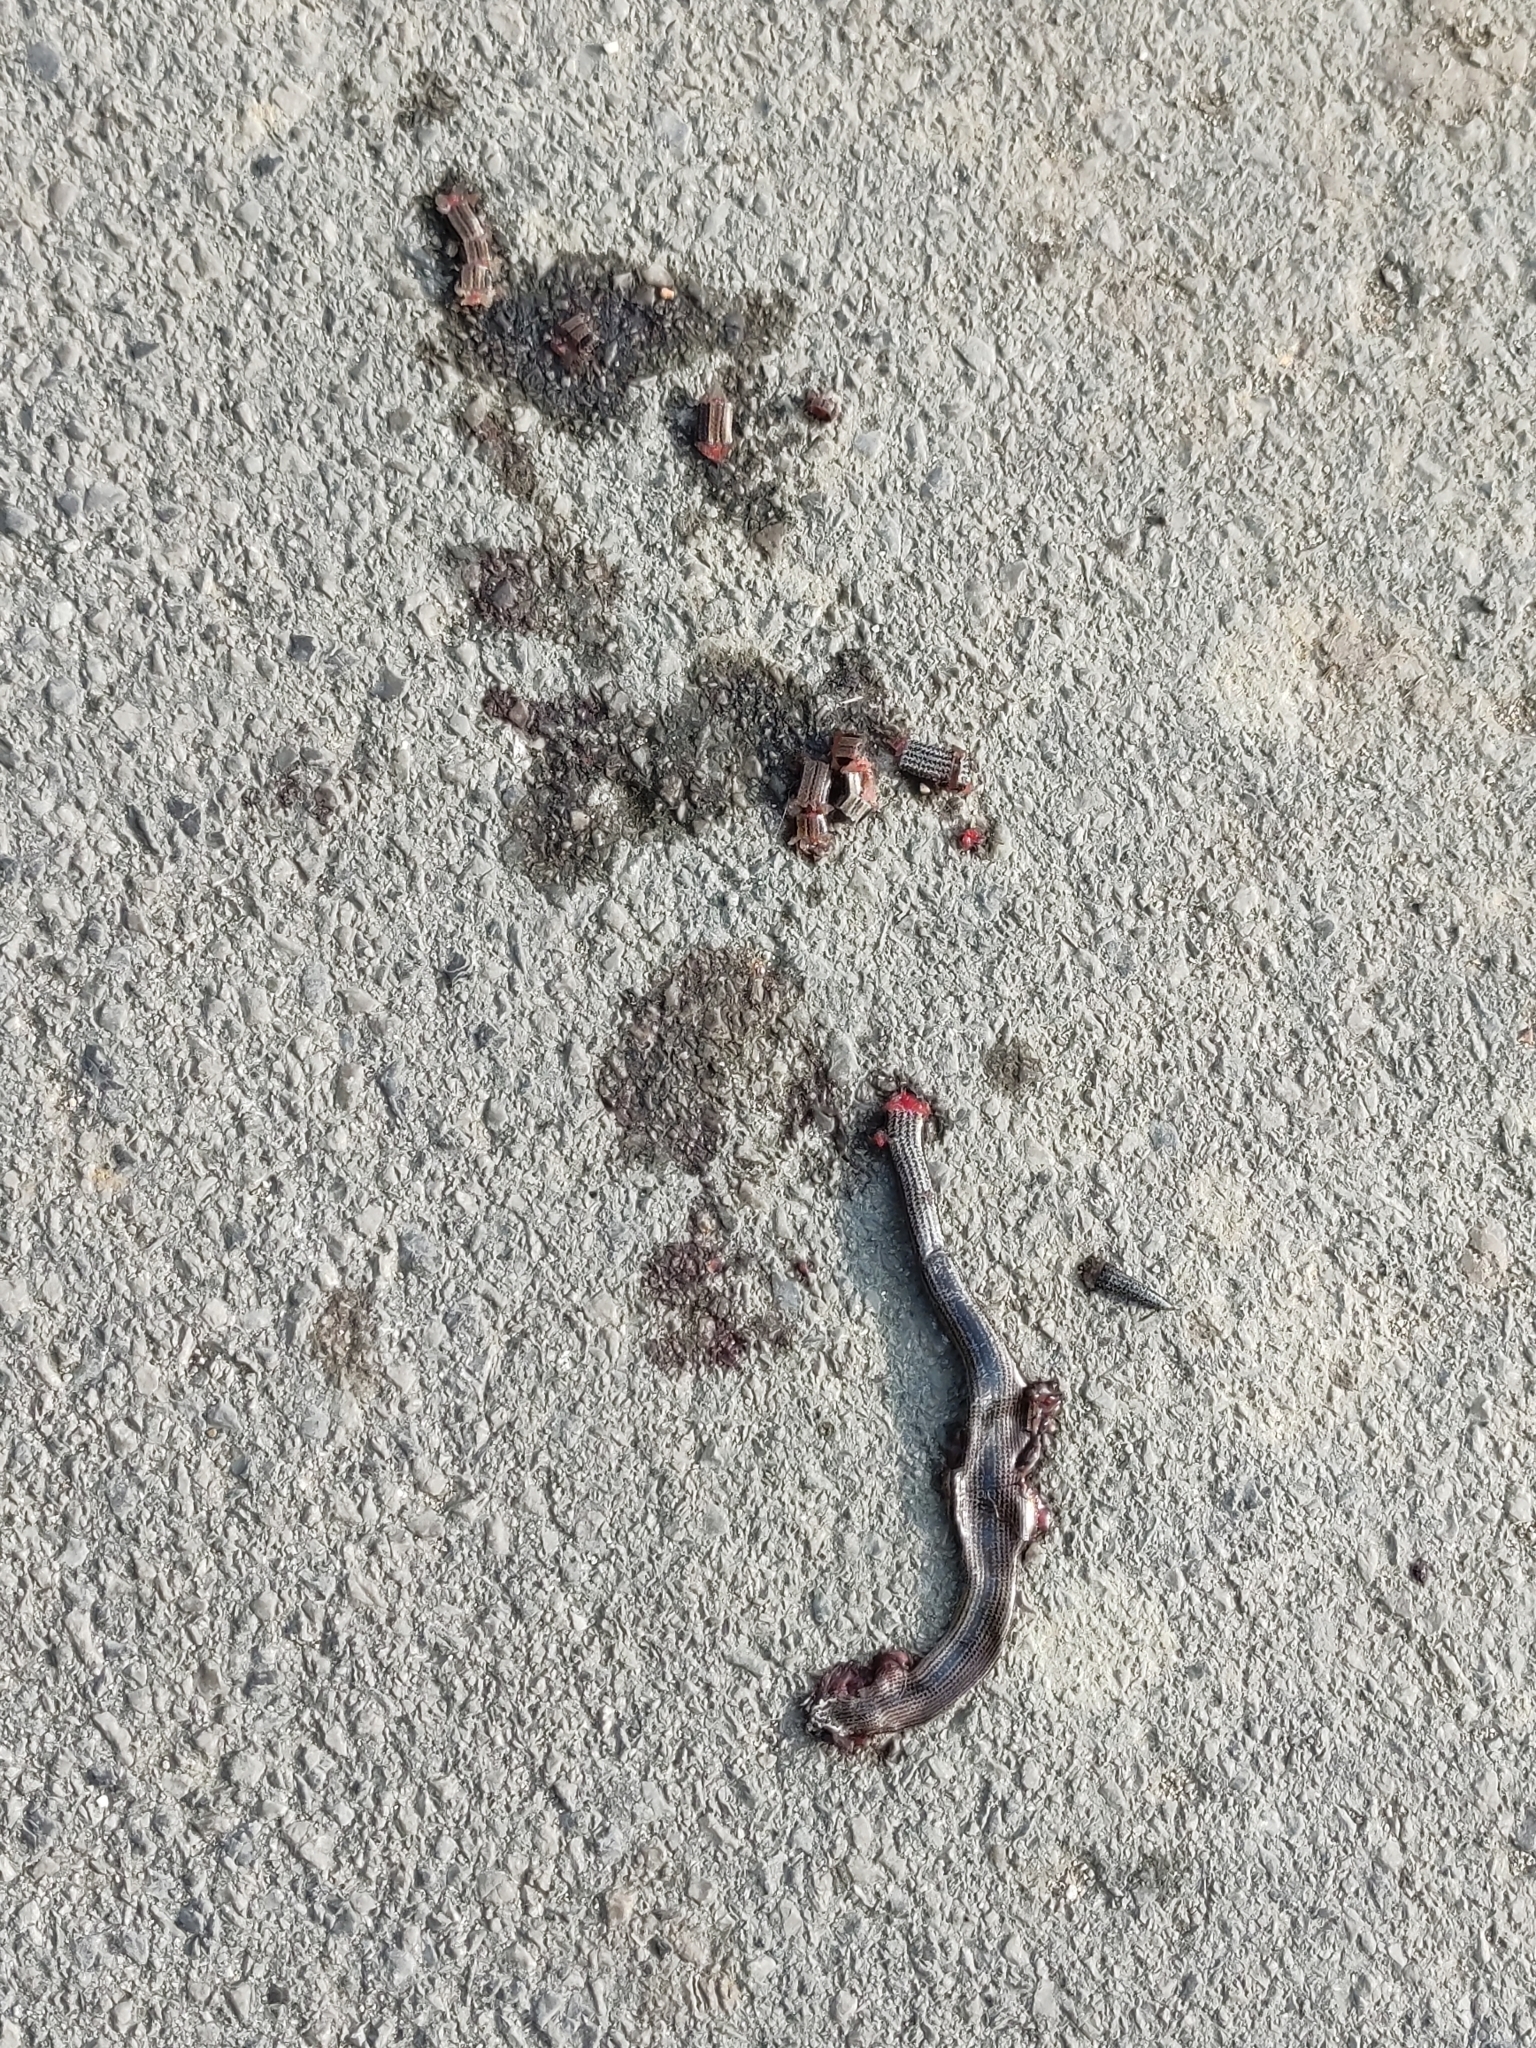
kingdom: Animalia
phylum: Chordata
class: Squamata
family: Anguidae
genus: Anguis
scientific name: Anguis fragilis
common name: Slow worm
